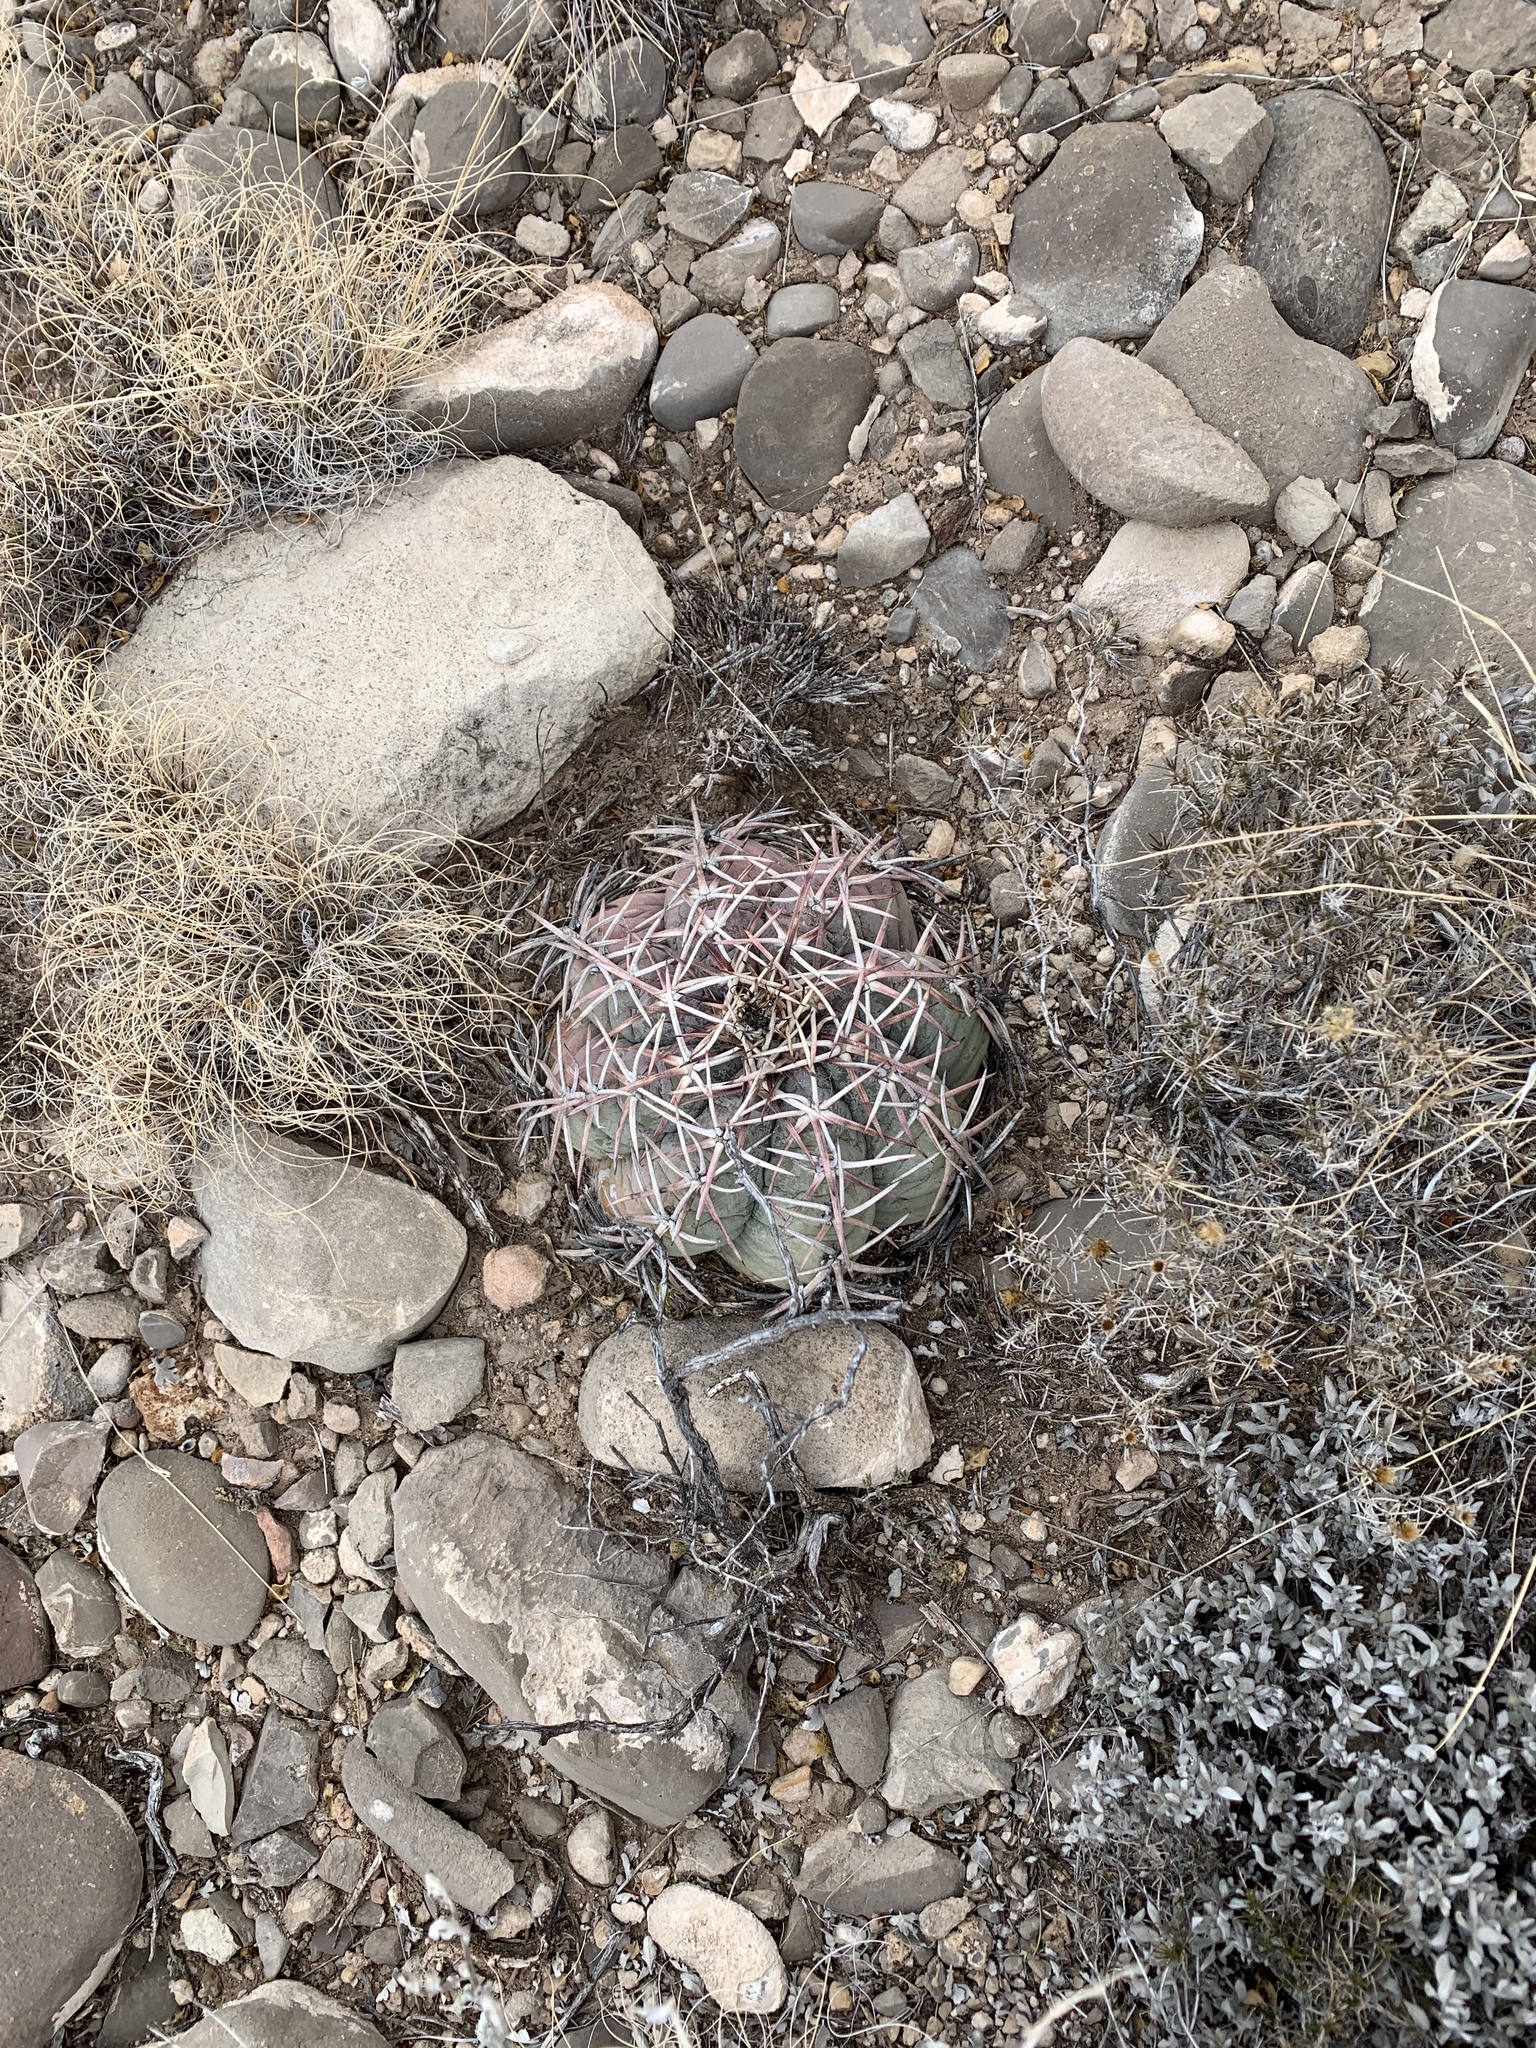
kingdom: Plantae
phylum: Tracheophyta
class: Magnoliopsida
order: Caryophyllales
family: Cactaceae
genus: Echinocactus
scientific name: Echinocactus horizonthalonius
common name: Devilshead
